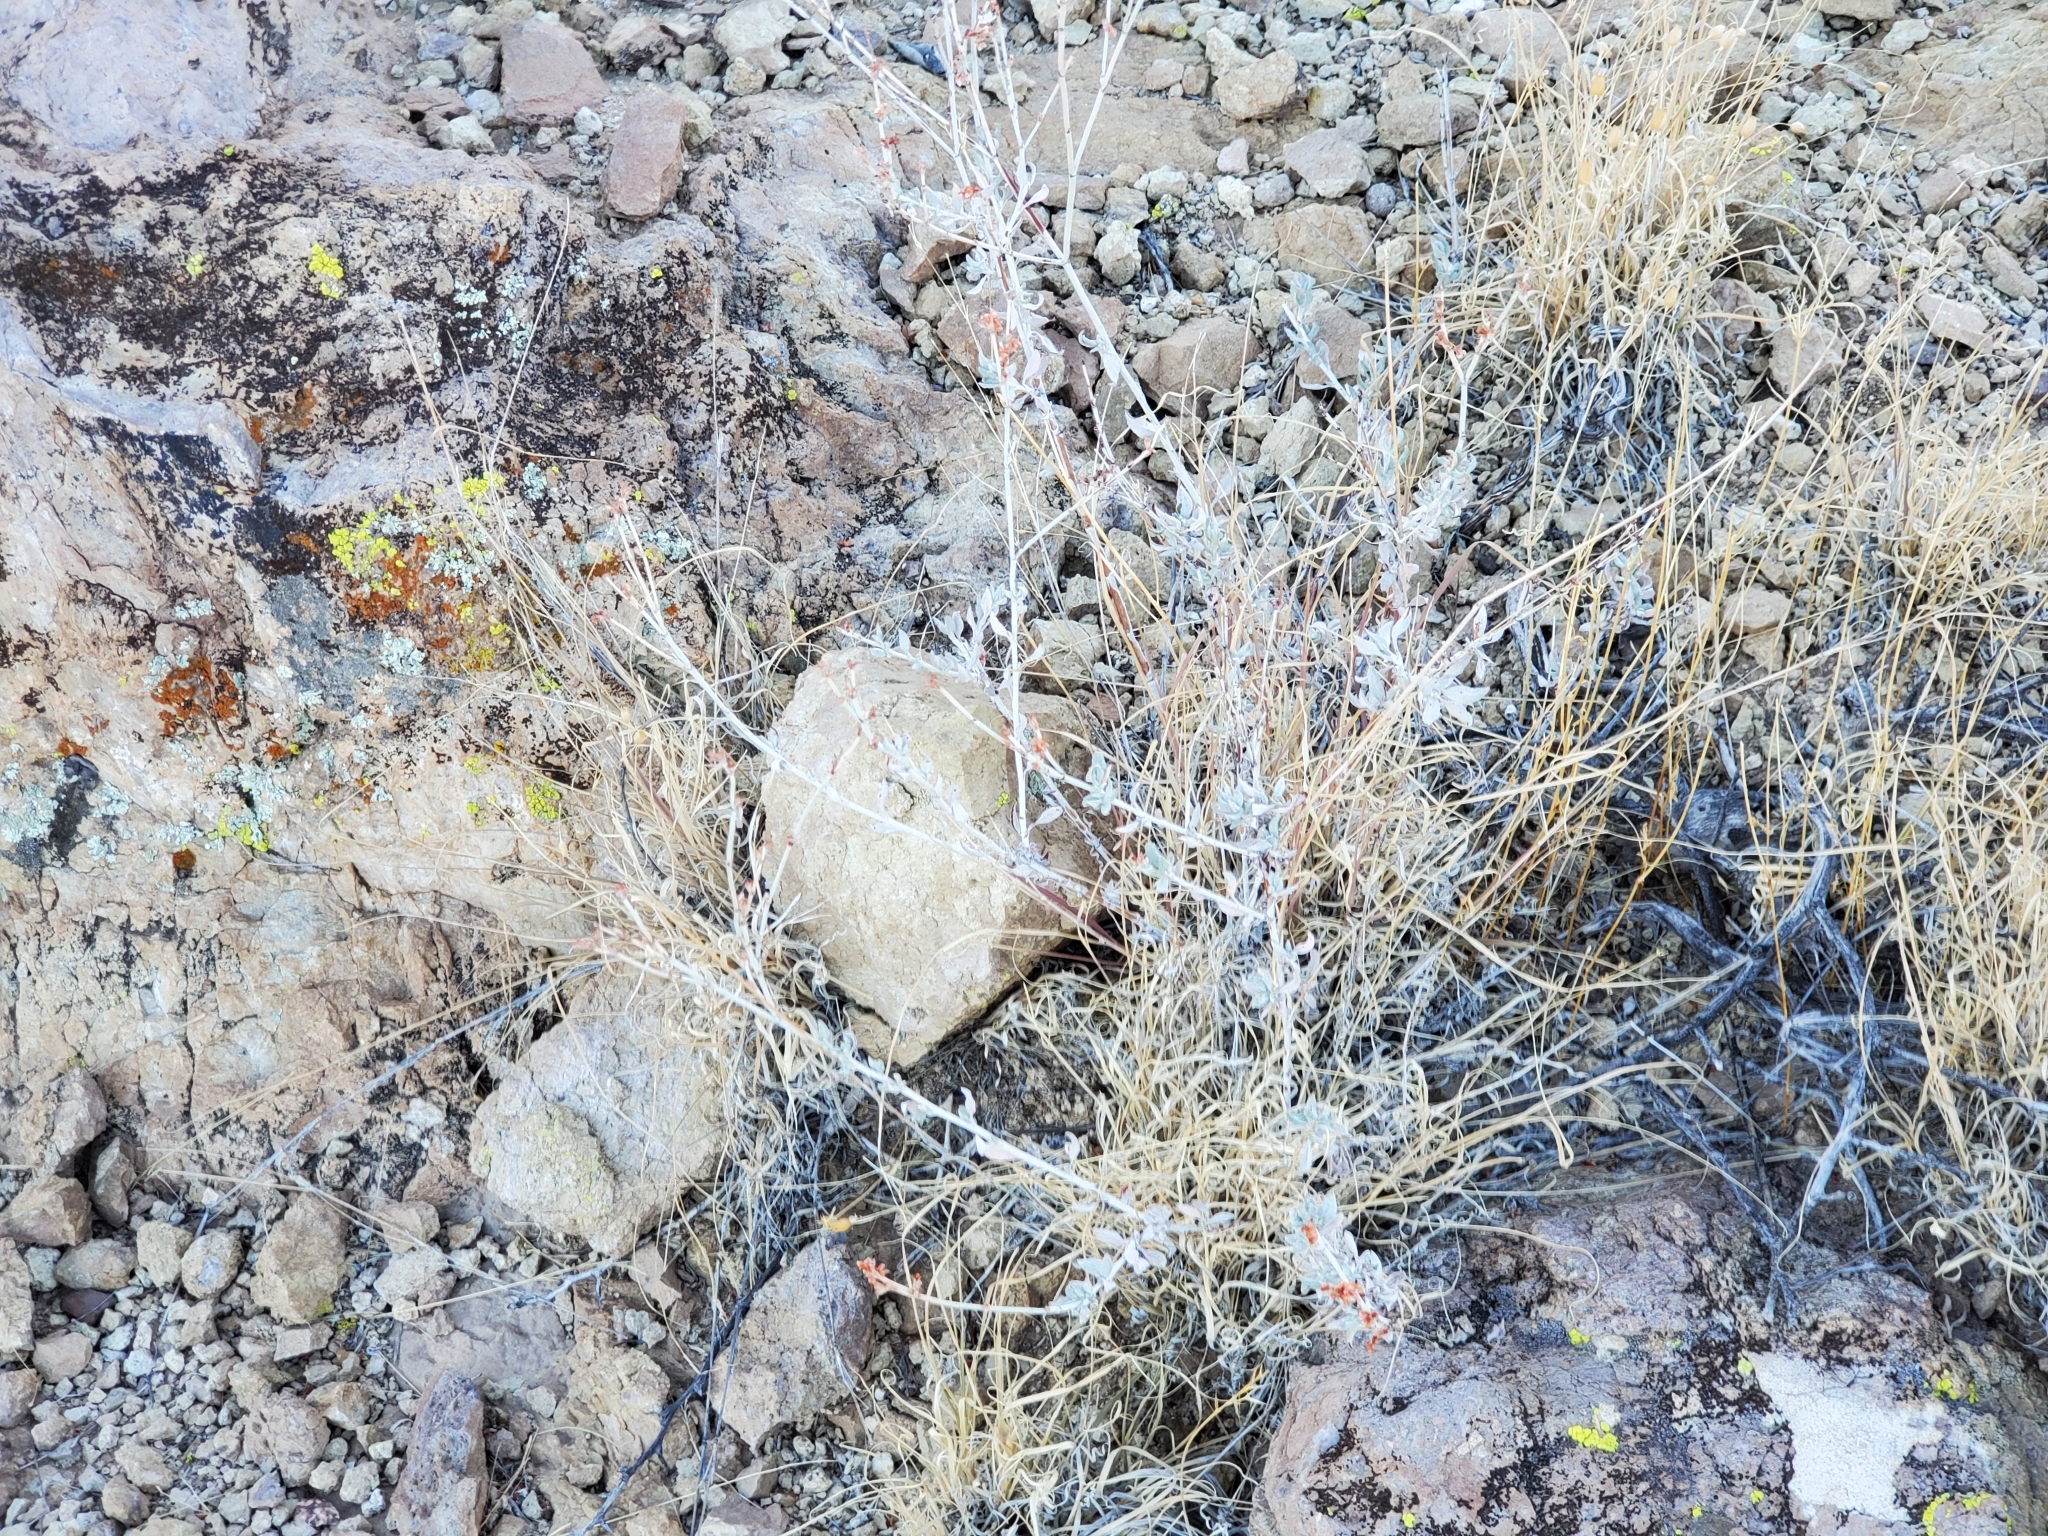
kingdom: Plantae
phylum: Tracheophyta
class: Magnoliopsida
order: Caryophyllales
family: Polygonaceae
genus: Eriogonum
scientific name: Eriogonum wrightii
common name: Bastard-sage
